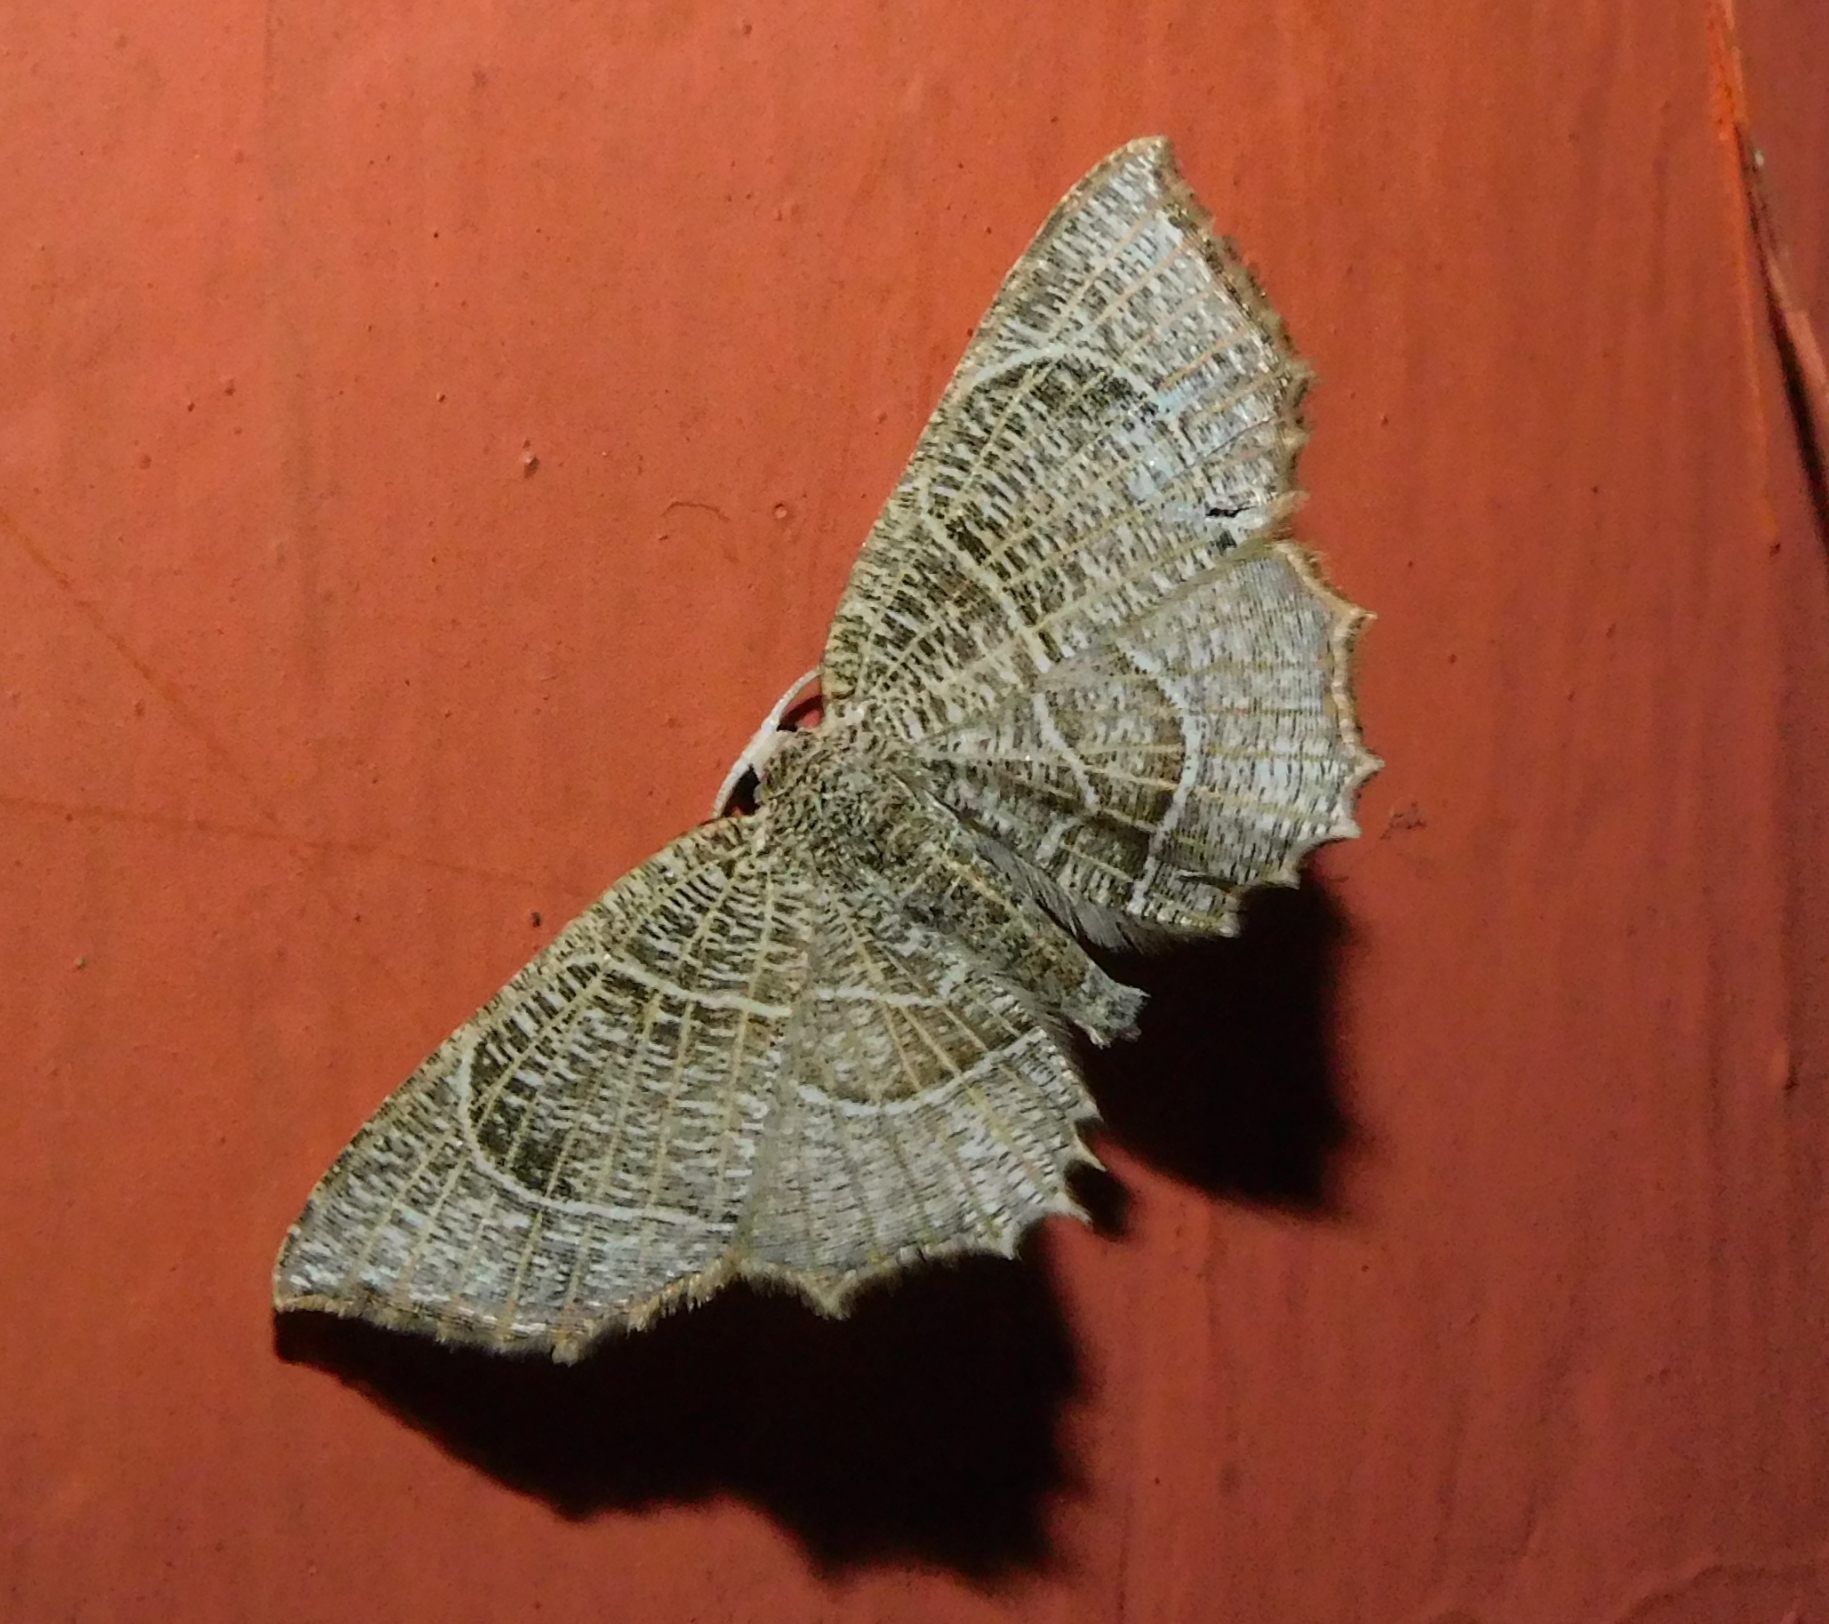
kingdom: Animalia
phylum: Arthropoda
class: Insecta
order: Lepidoptera
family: Uraniidae
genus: Epiplema
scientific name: Epiplema
